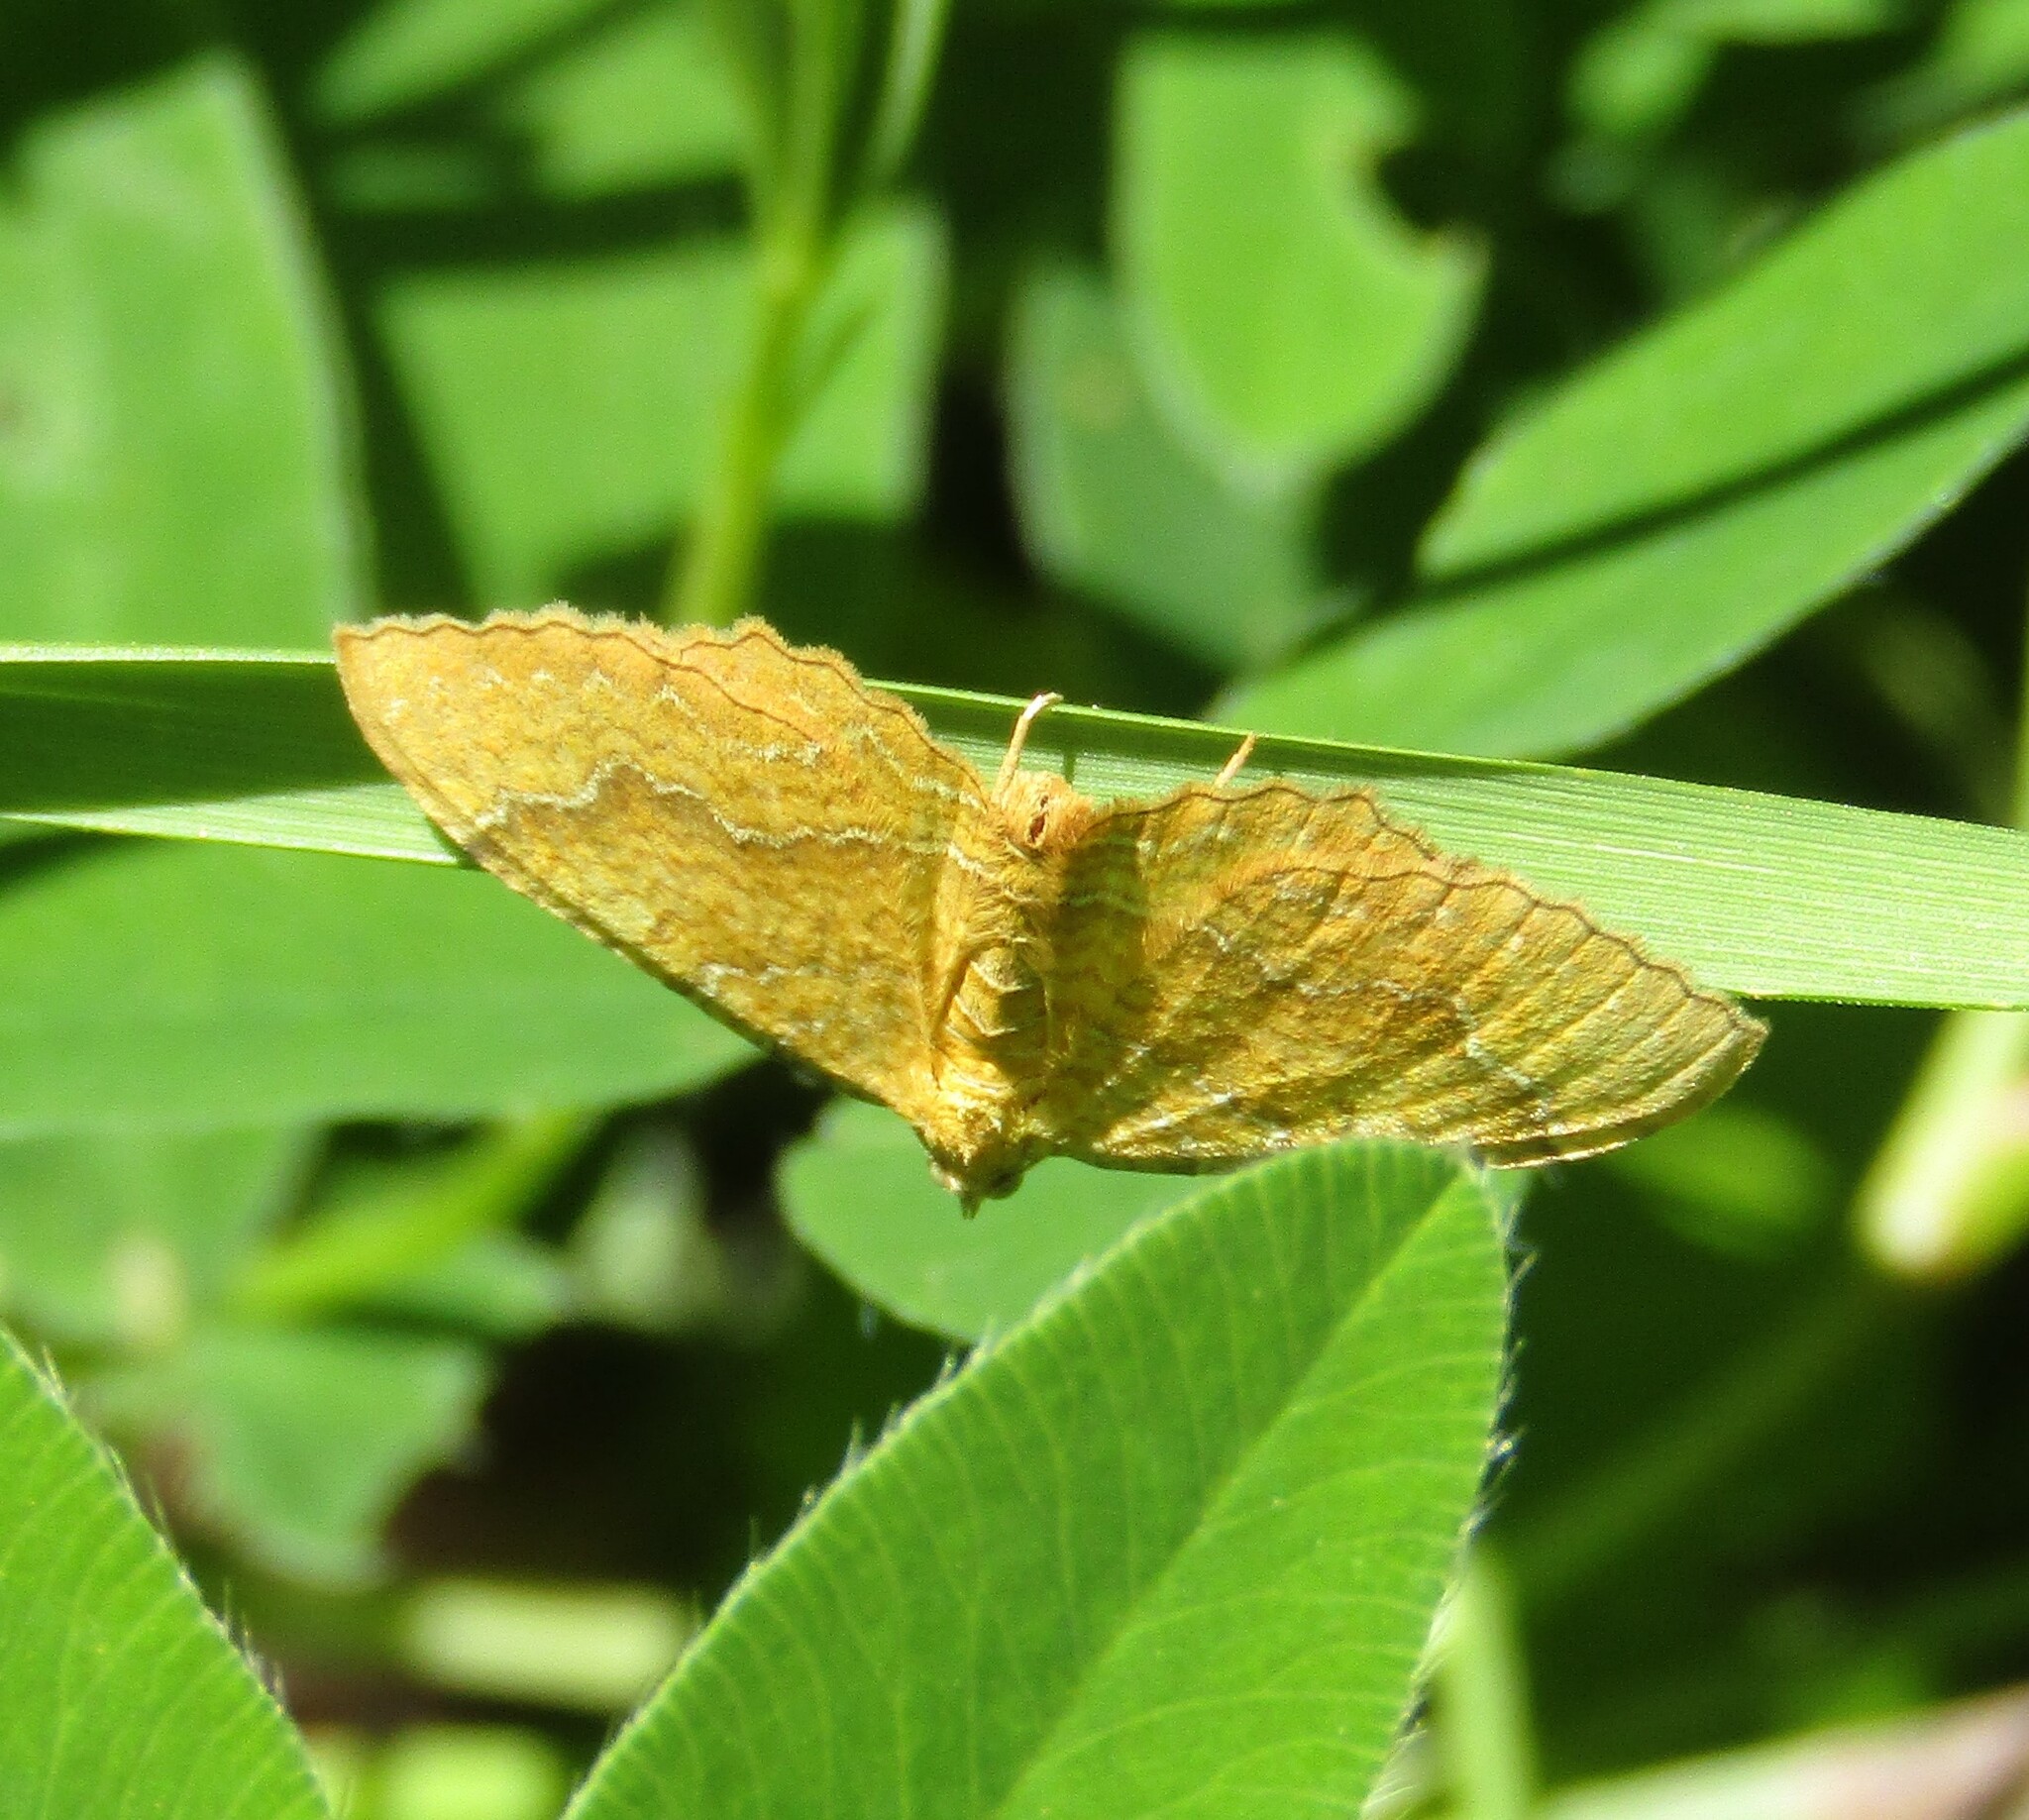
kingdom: Animalia
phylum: Arthropoda
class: Insecta
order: Lepidoptera
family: Geometridae
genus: Camptogramma
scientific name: Camptogramma bilineata
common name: Yellow shell
